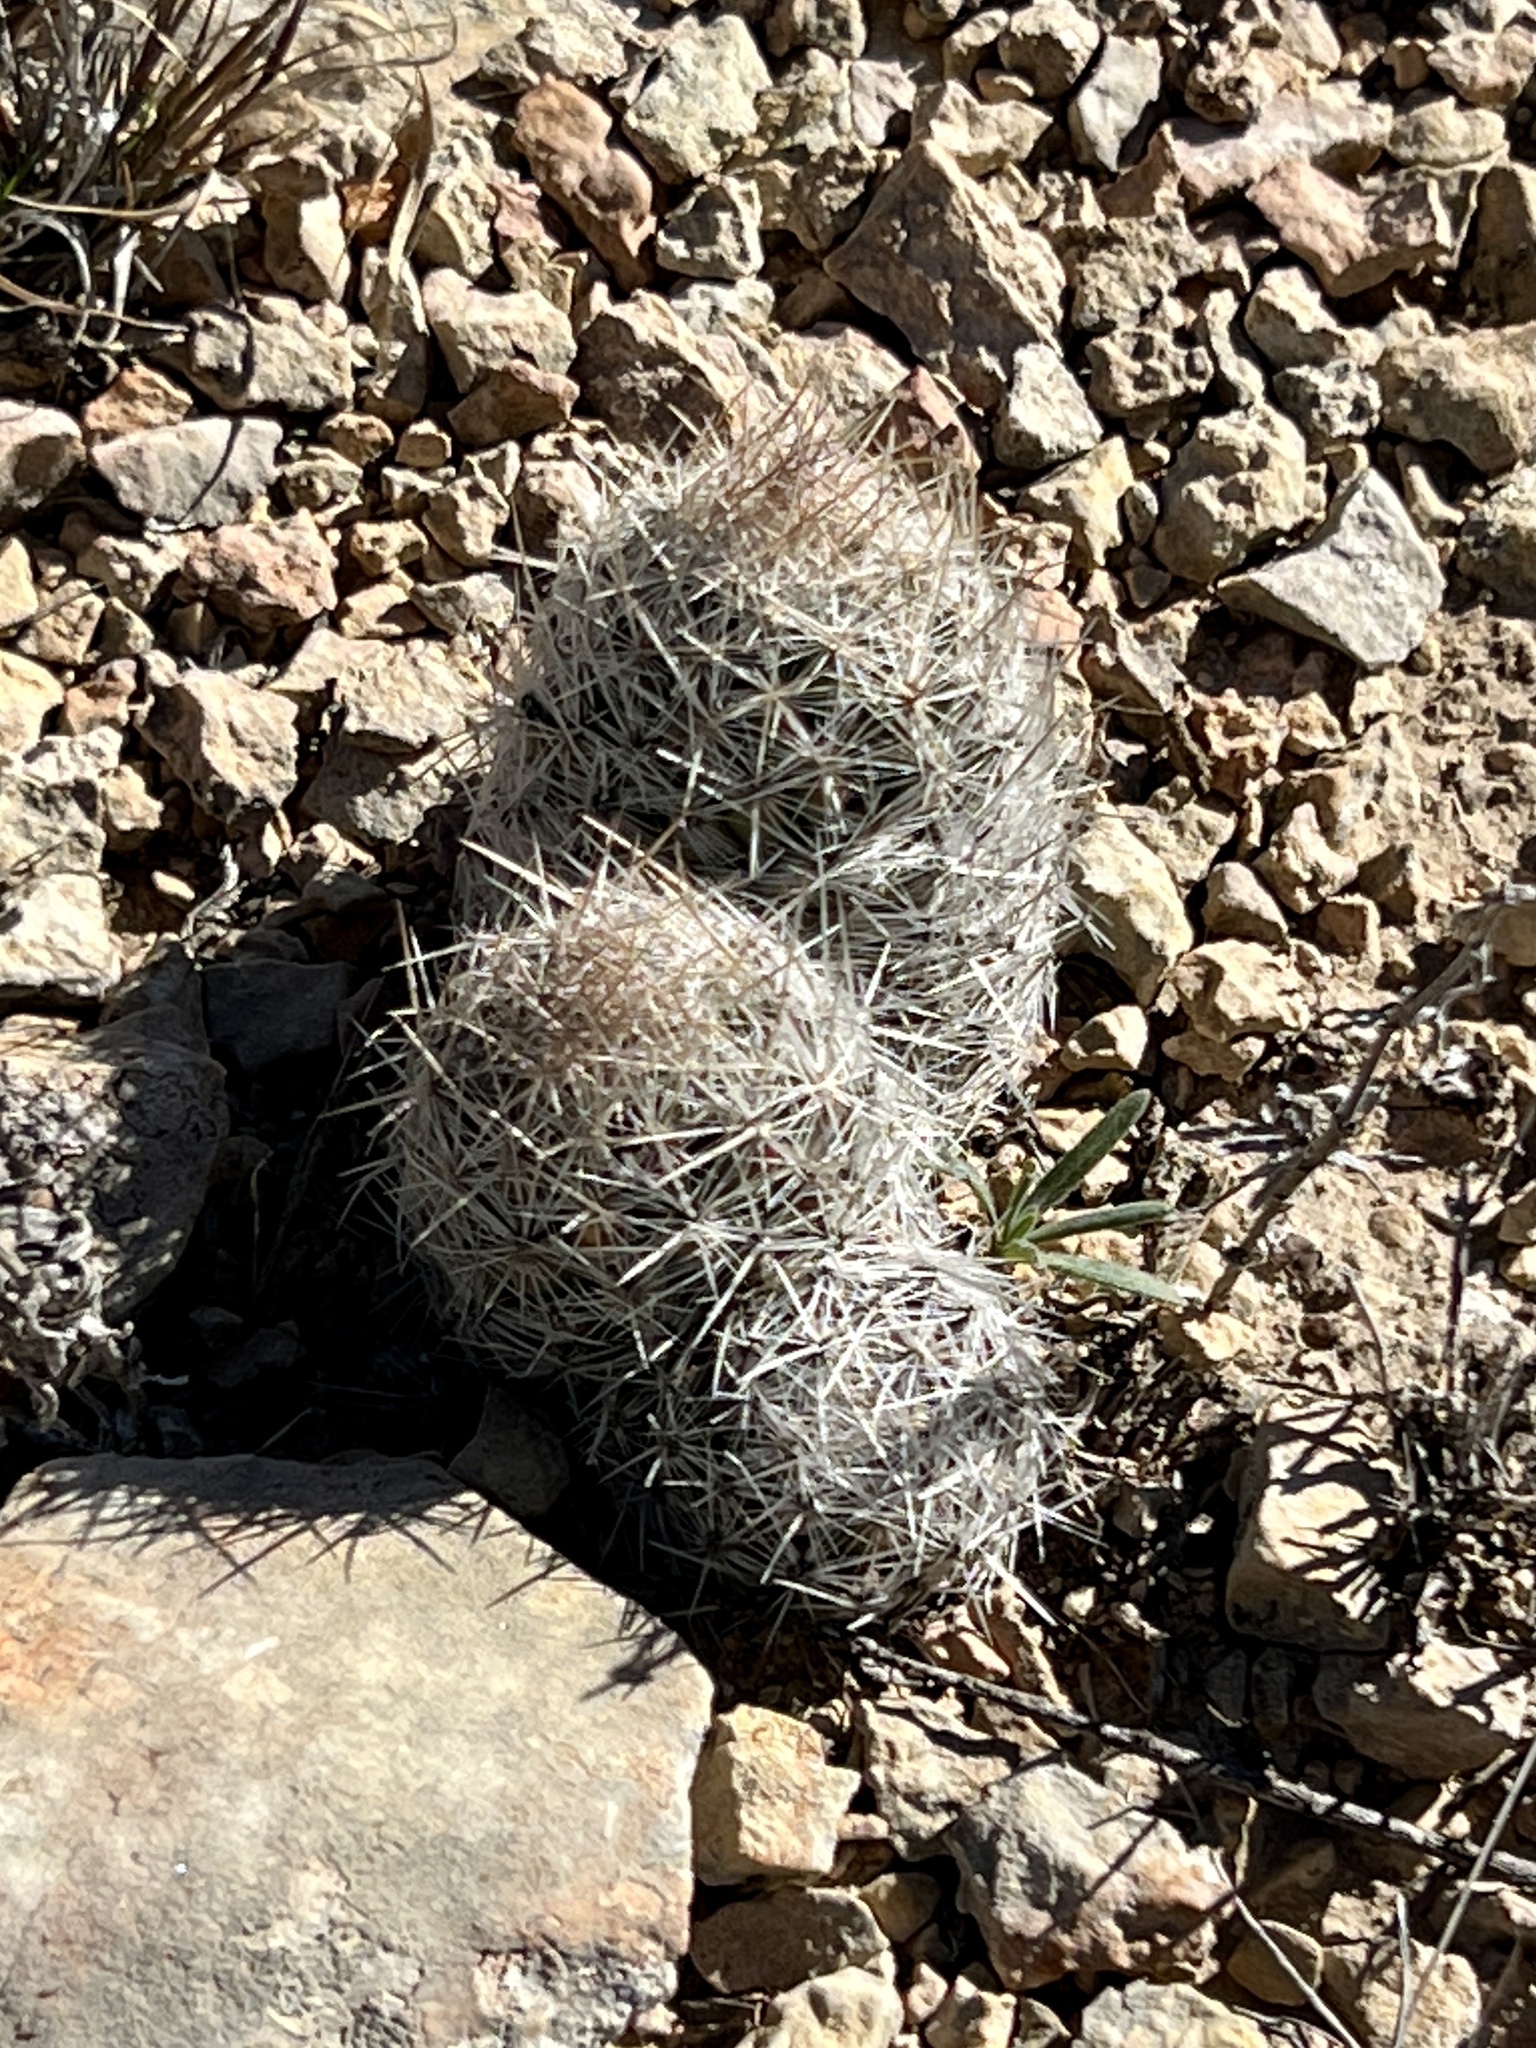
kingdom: Plantae
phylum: Tracheophyta
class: Magnoliopsida
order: Caryophyllales
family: Cactaceae
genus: Pelecyphora
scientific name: Pelecyphora tuberculosa
